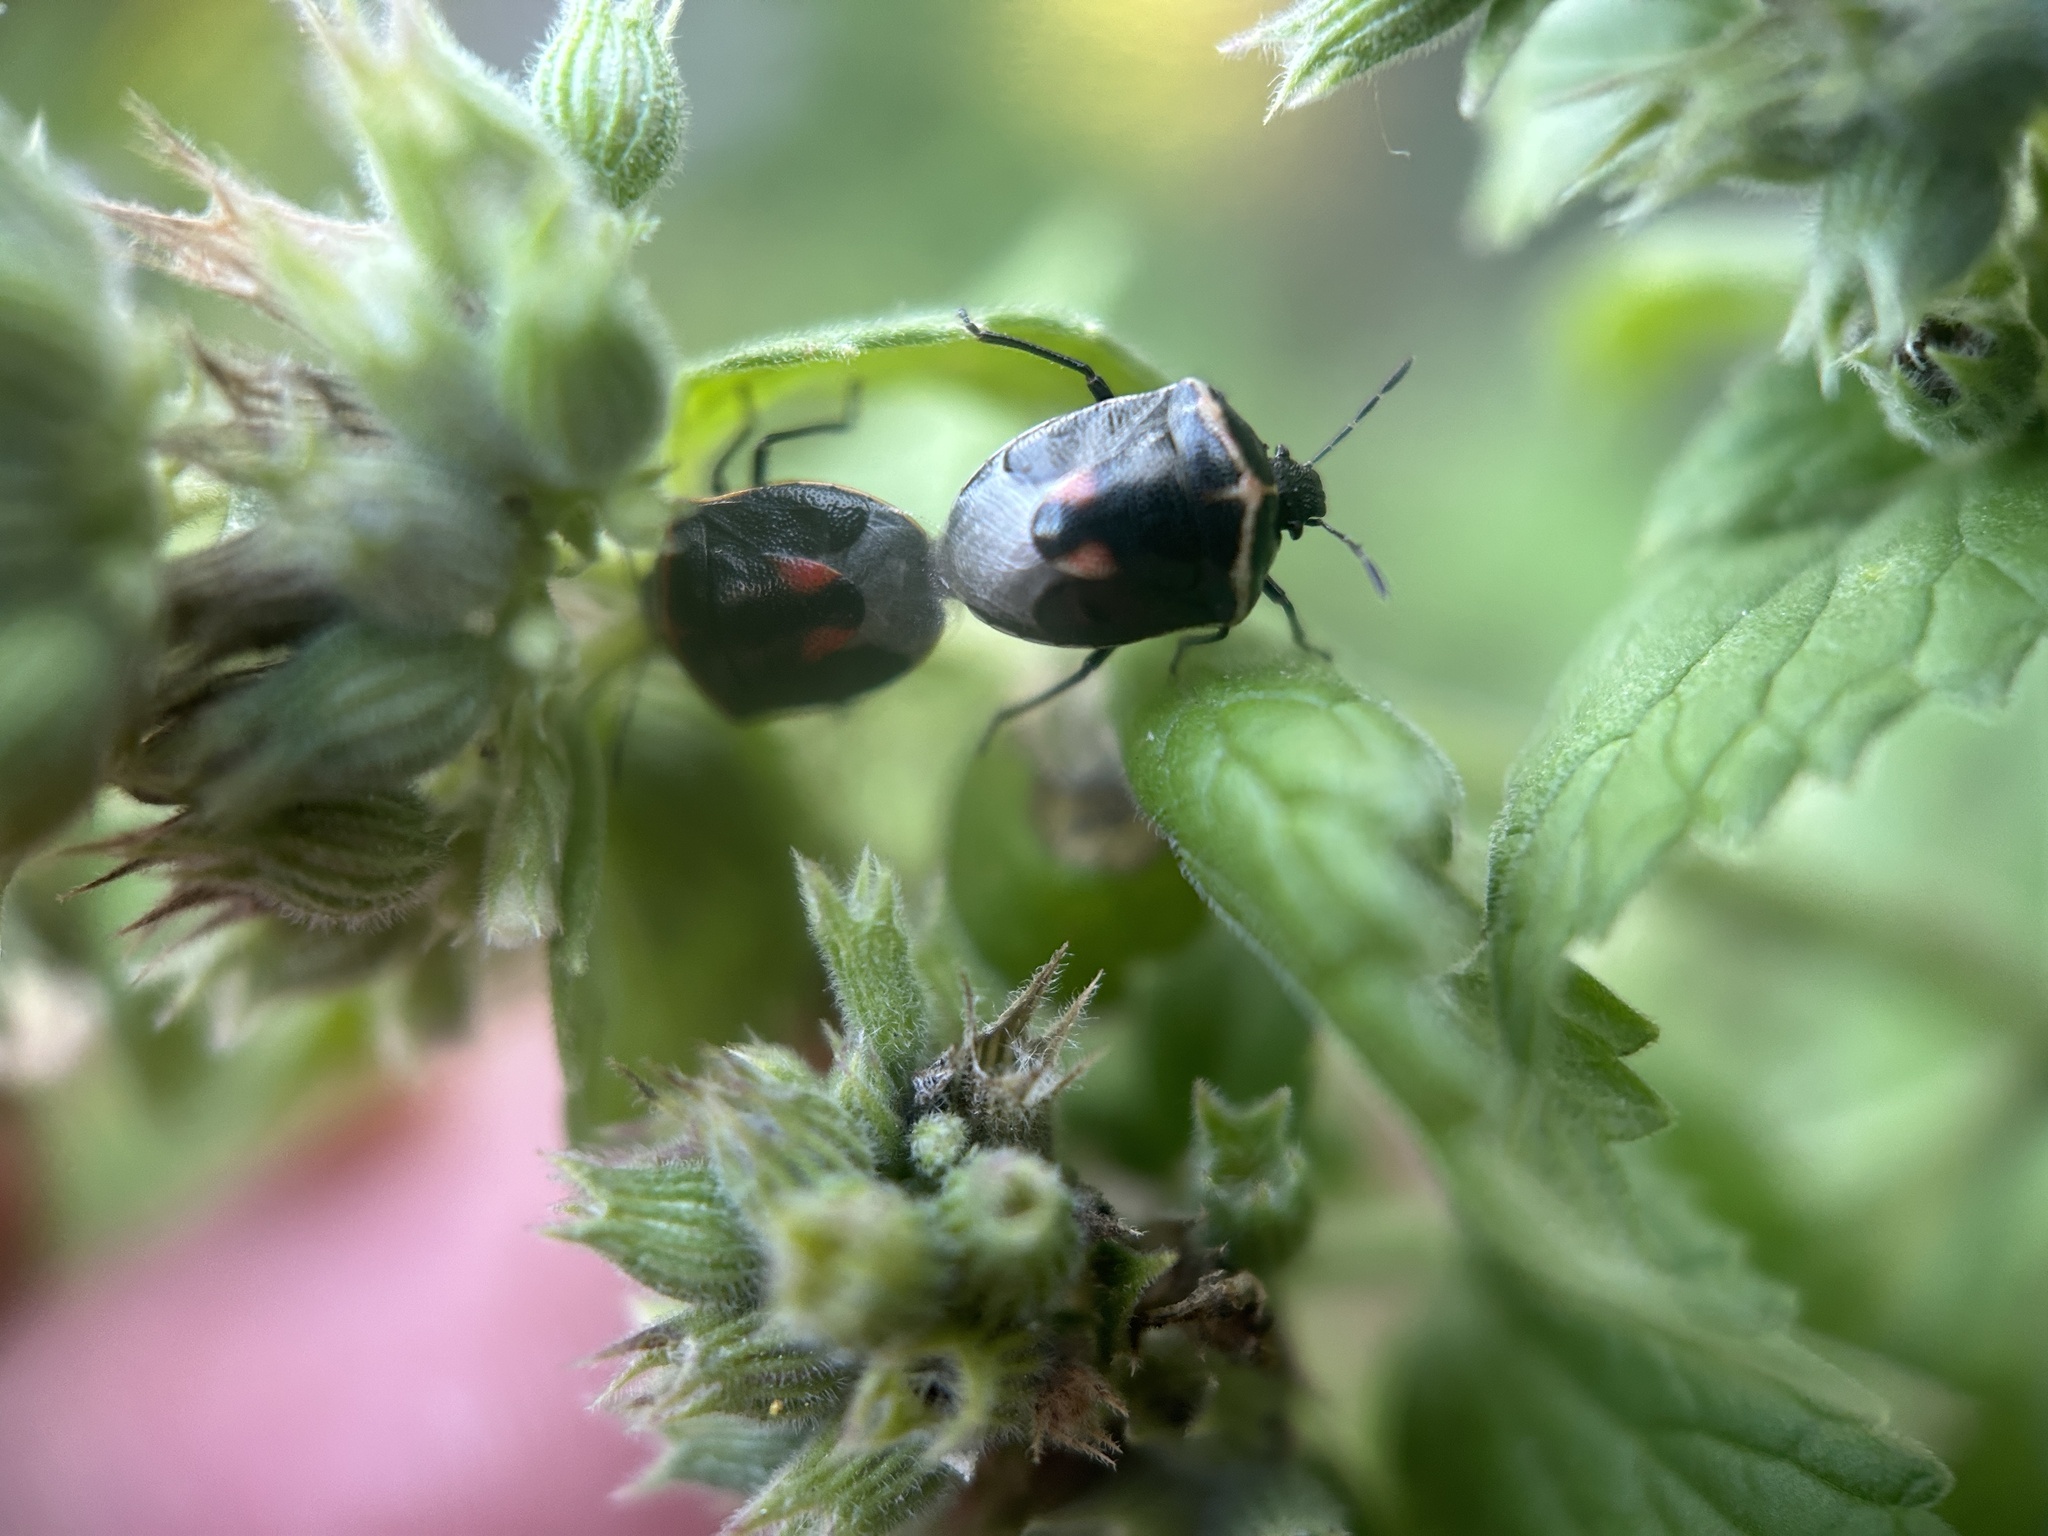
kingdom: Animalia
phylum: Arthropoda
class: Insecta
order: Hemiptera
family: Pentatomidae
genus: Cosmopepla
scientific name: Cosmopepla lintneriana
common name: Twice-stabbed stink bug
